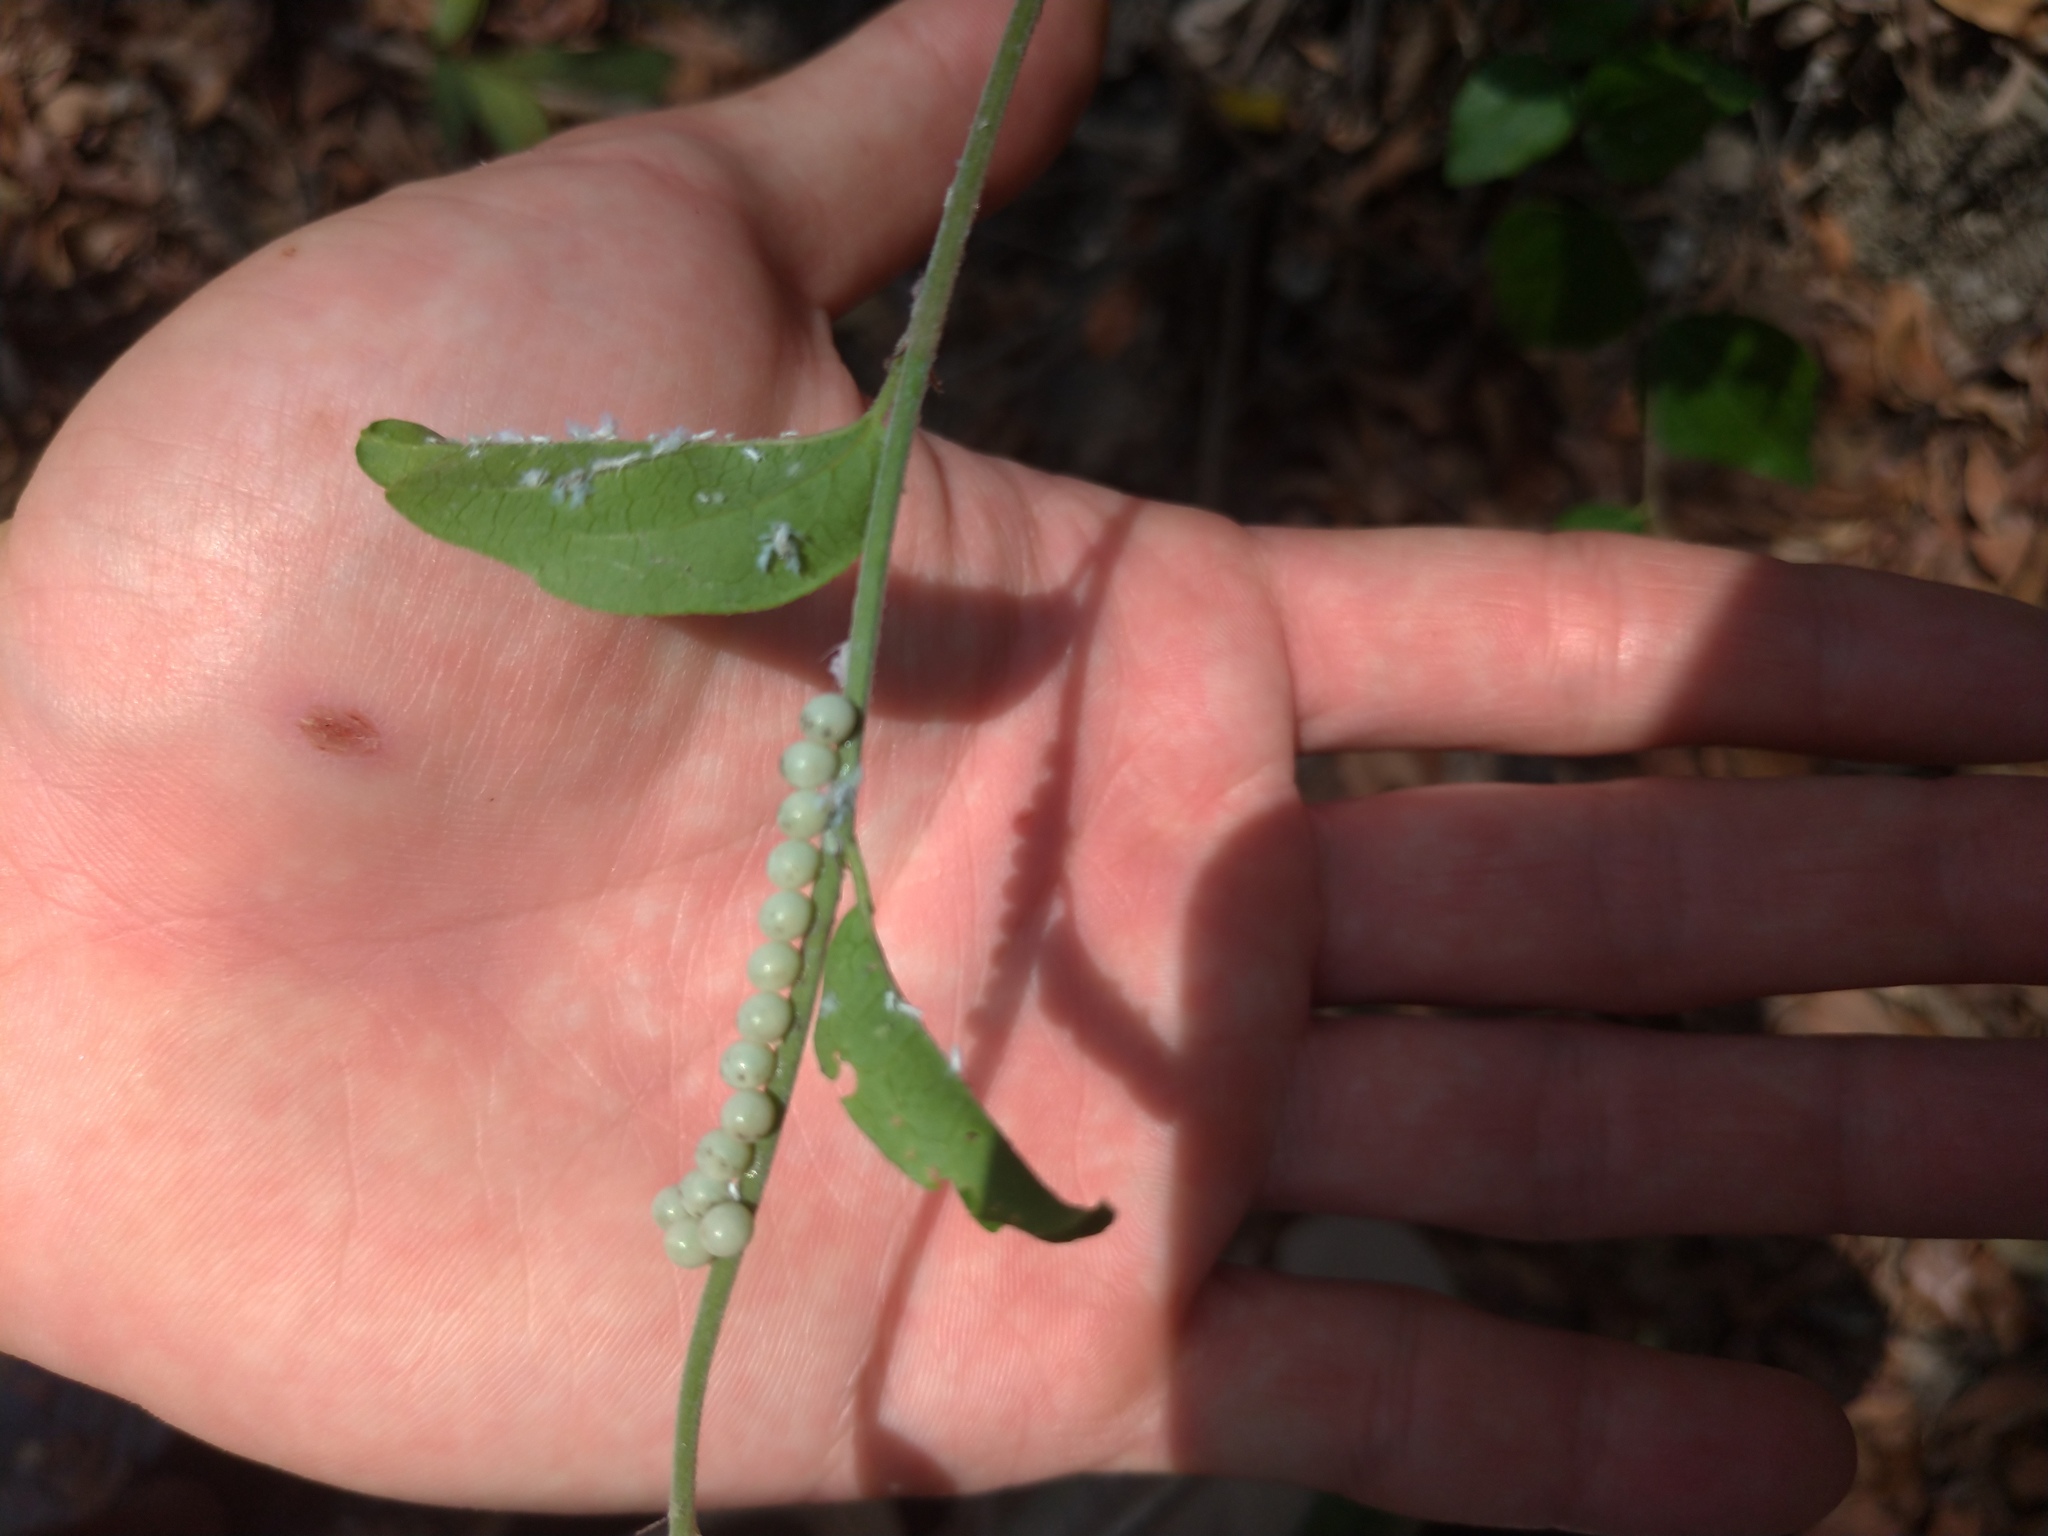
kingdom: Animalia
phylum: Arthropoda
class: Insecta
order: Hemiptera
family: Tessaratomidae
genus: Tessaratoma
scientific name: Tessaratoma papillosa
